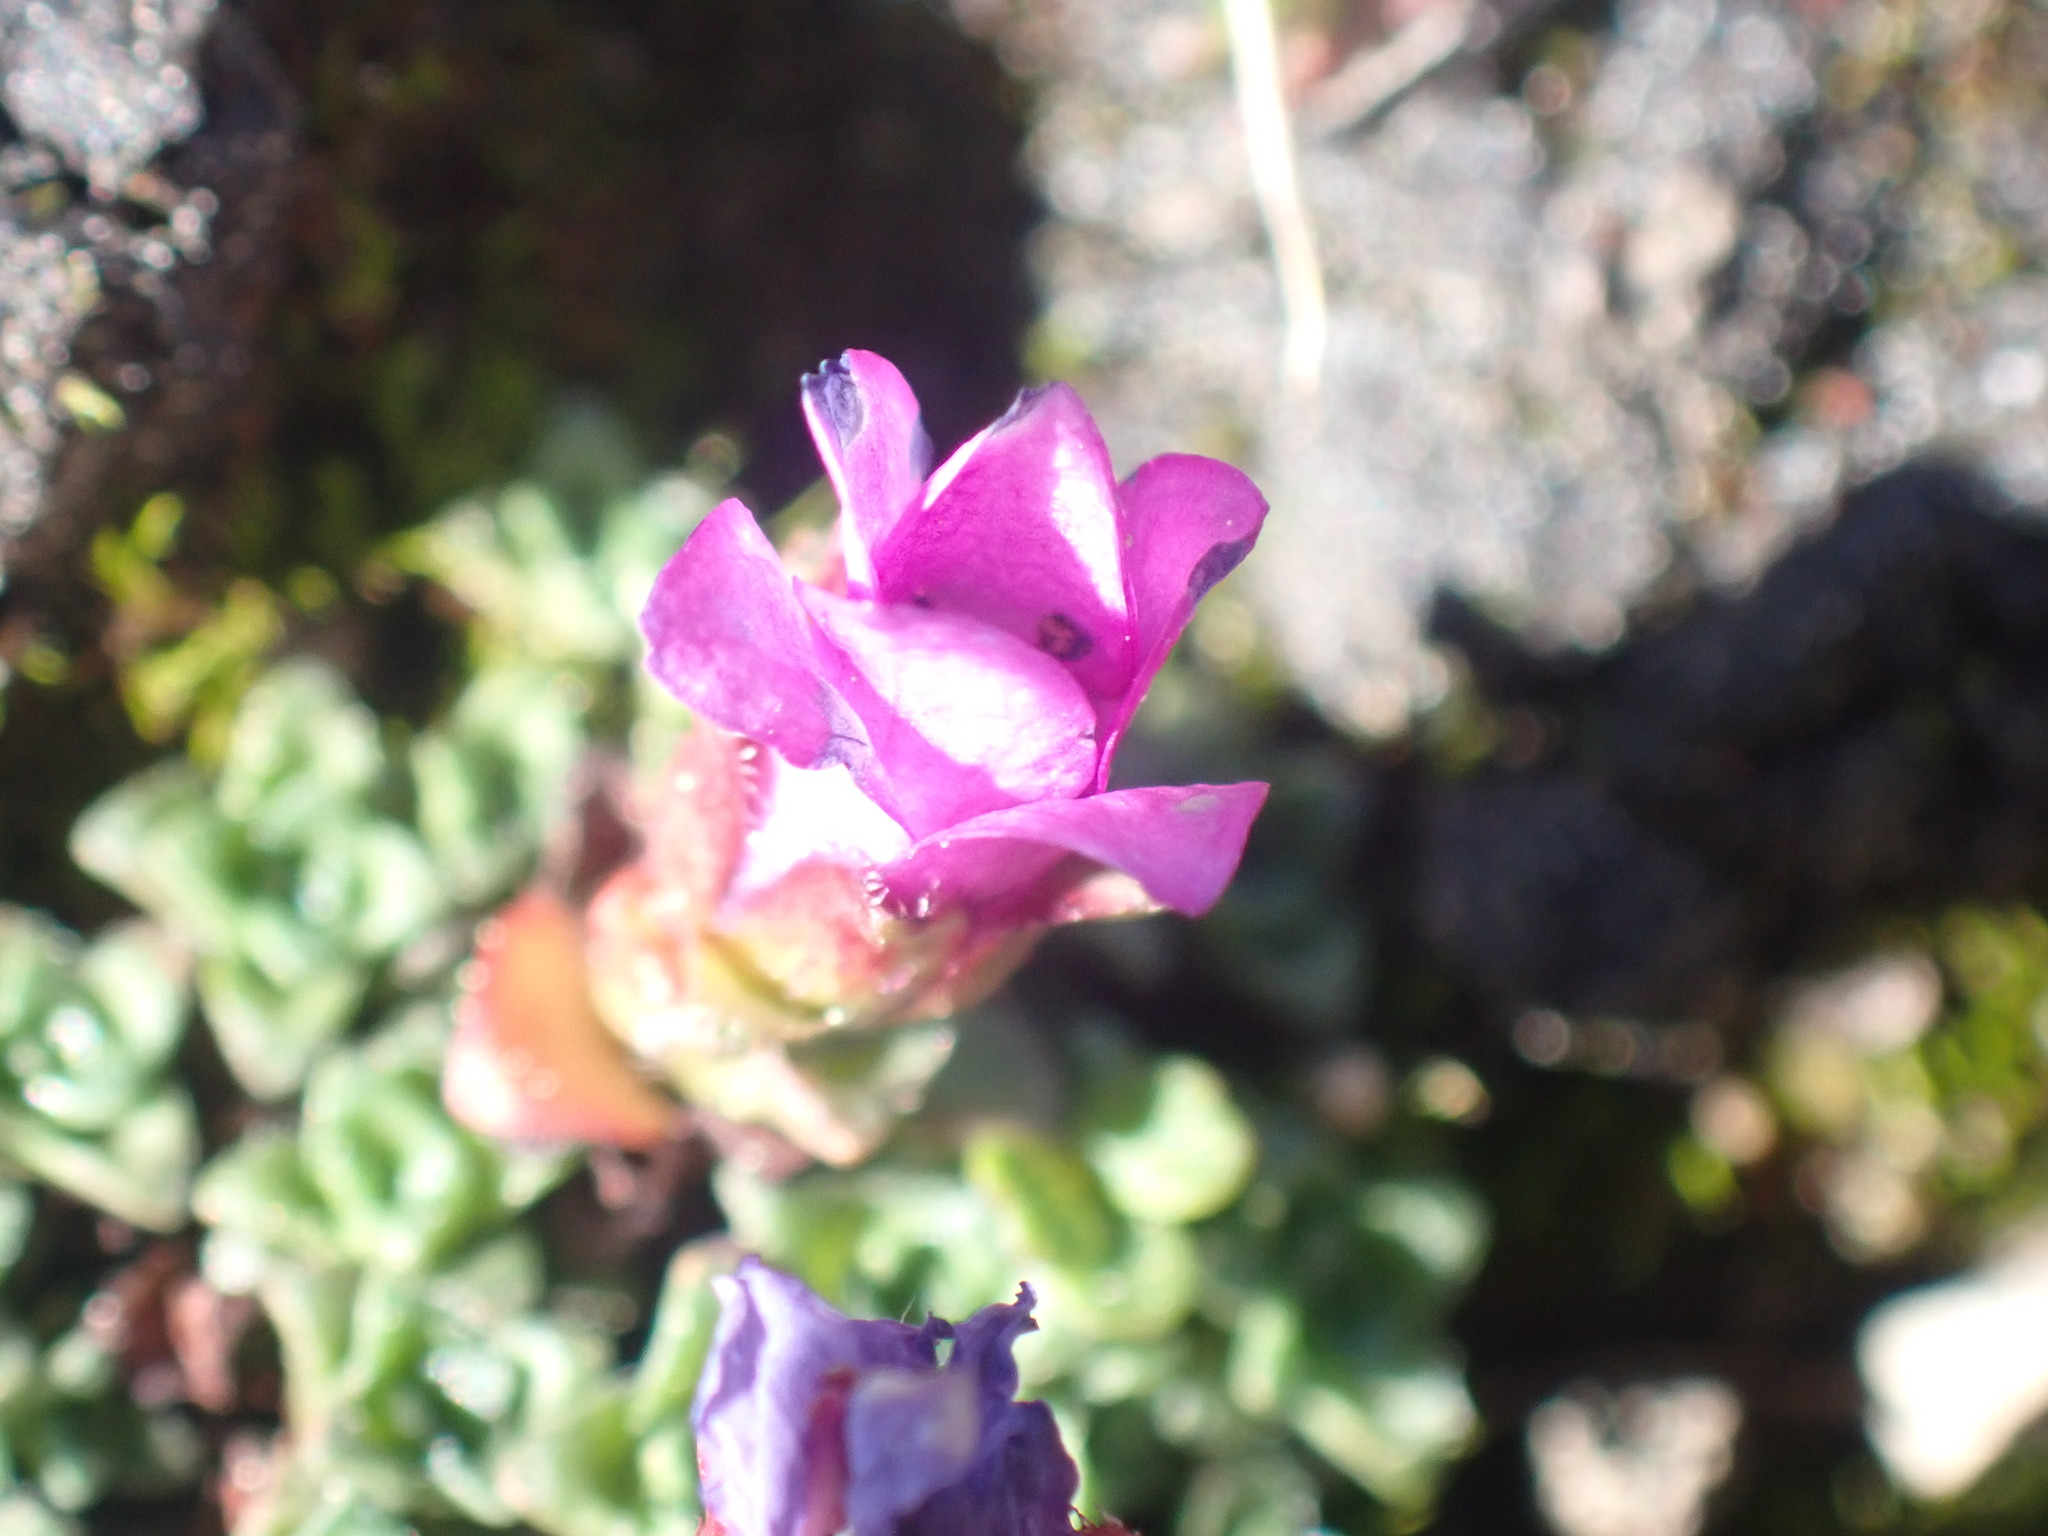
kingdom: Plantae
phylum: Tracheophyta
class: Magnoliopsida
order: Saxifragales
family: Saxifragaceae
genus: Saxifraga
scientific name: Saxifraga oppositifolia
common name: Purple saxifrage
